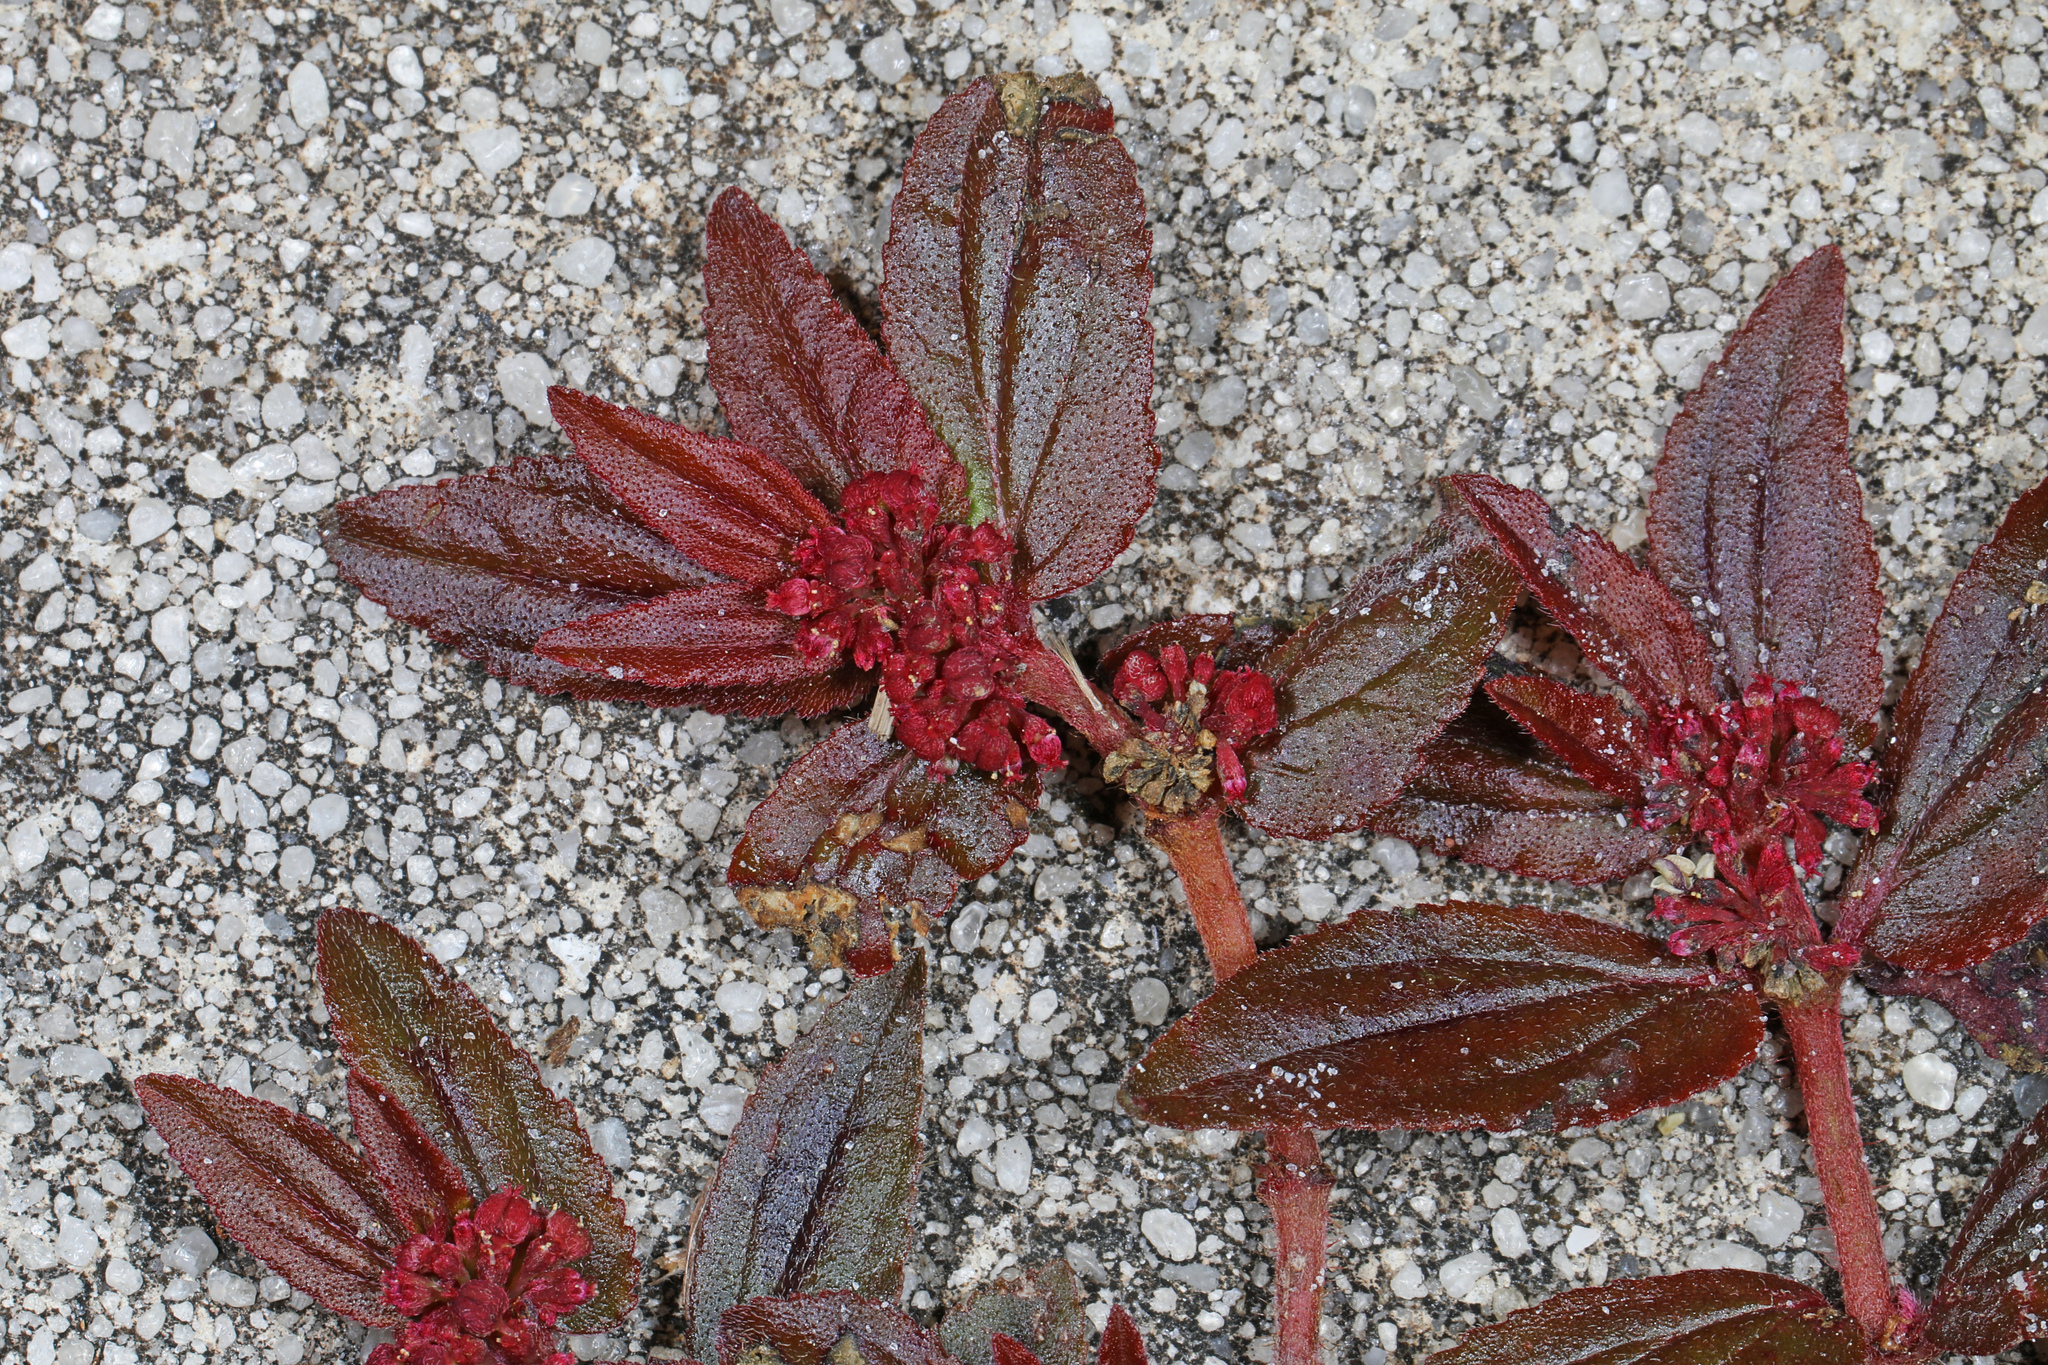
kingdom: Plantae
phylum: Tracheophyta
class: Magnoliopsida
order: Malpighiales
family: Euphorbiaceae
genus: Euphorbia
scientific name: Euphorbia hirta
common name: Pillpod sandmat
